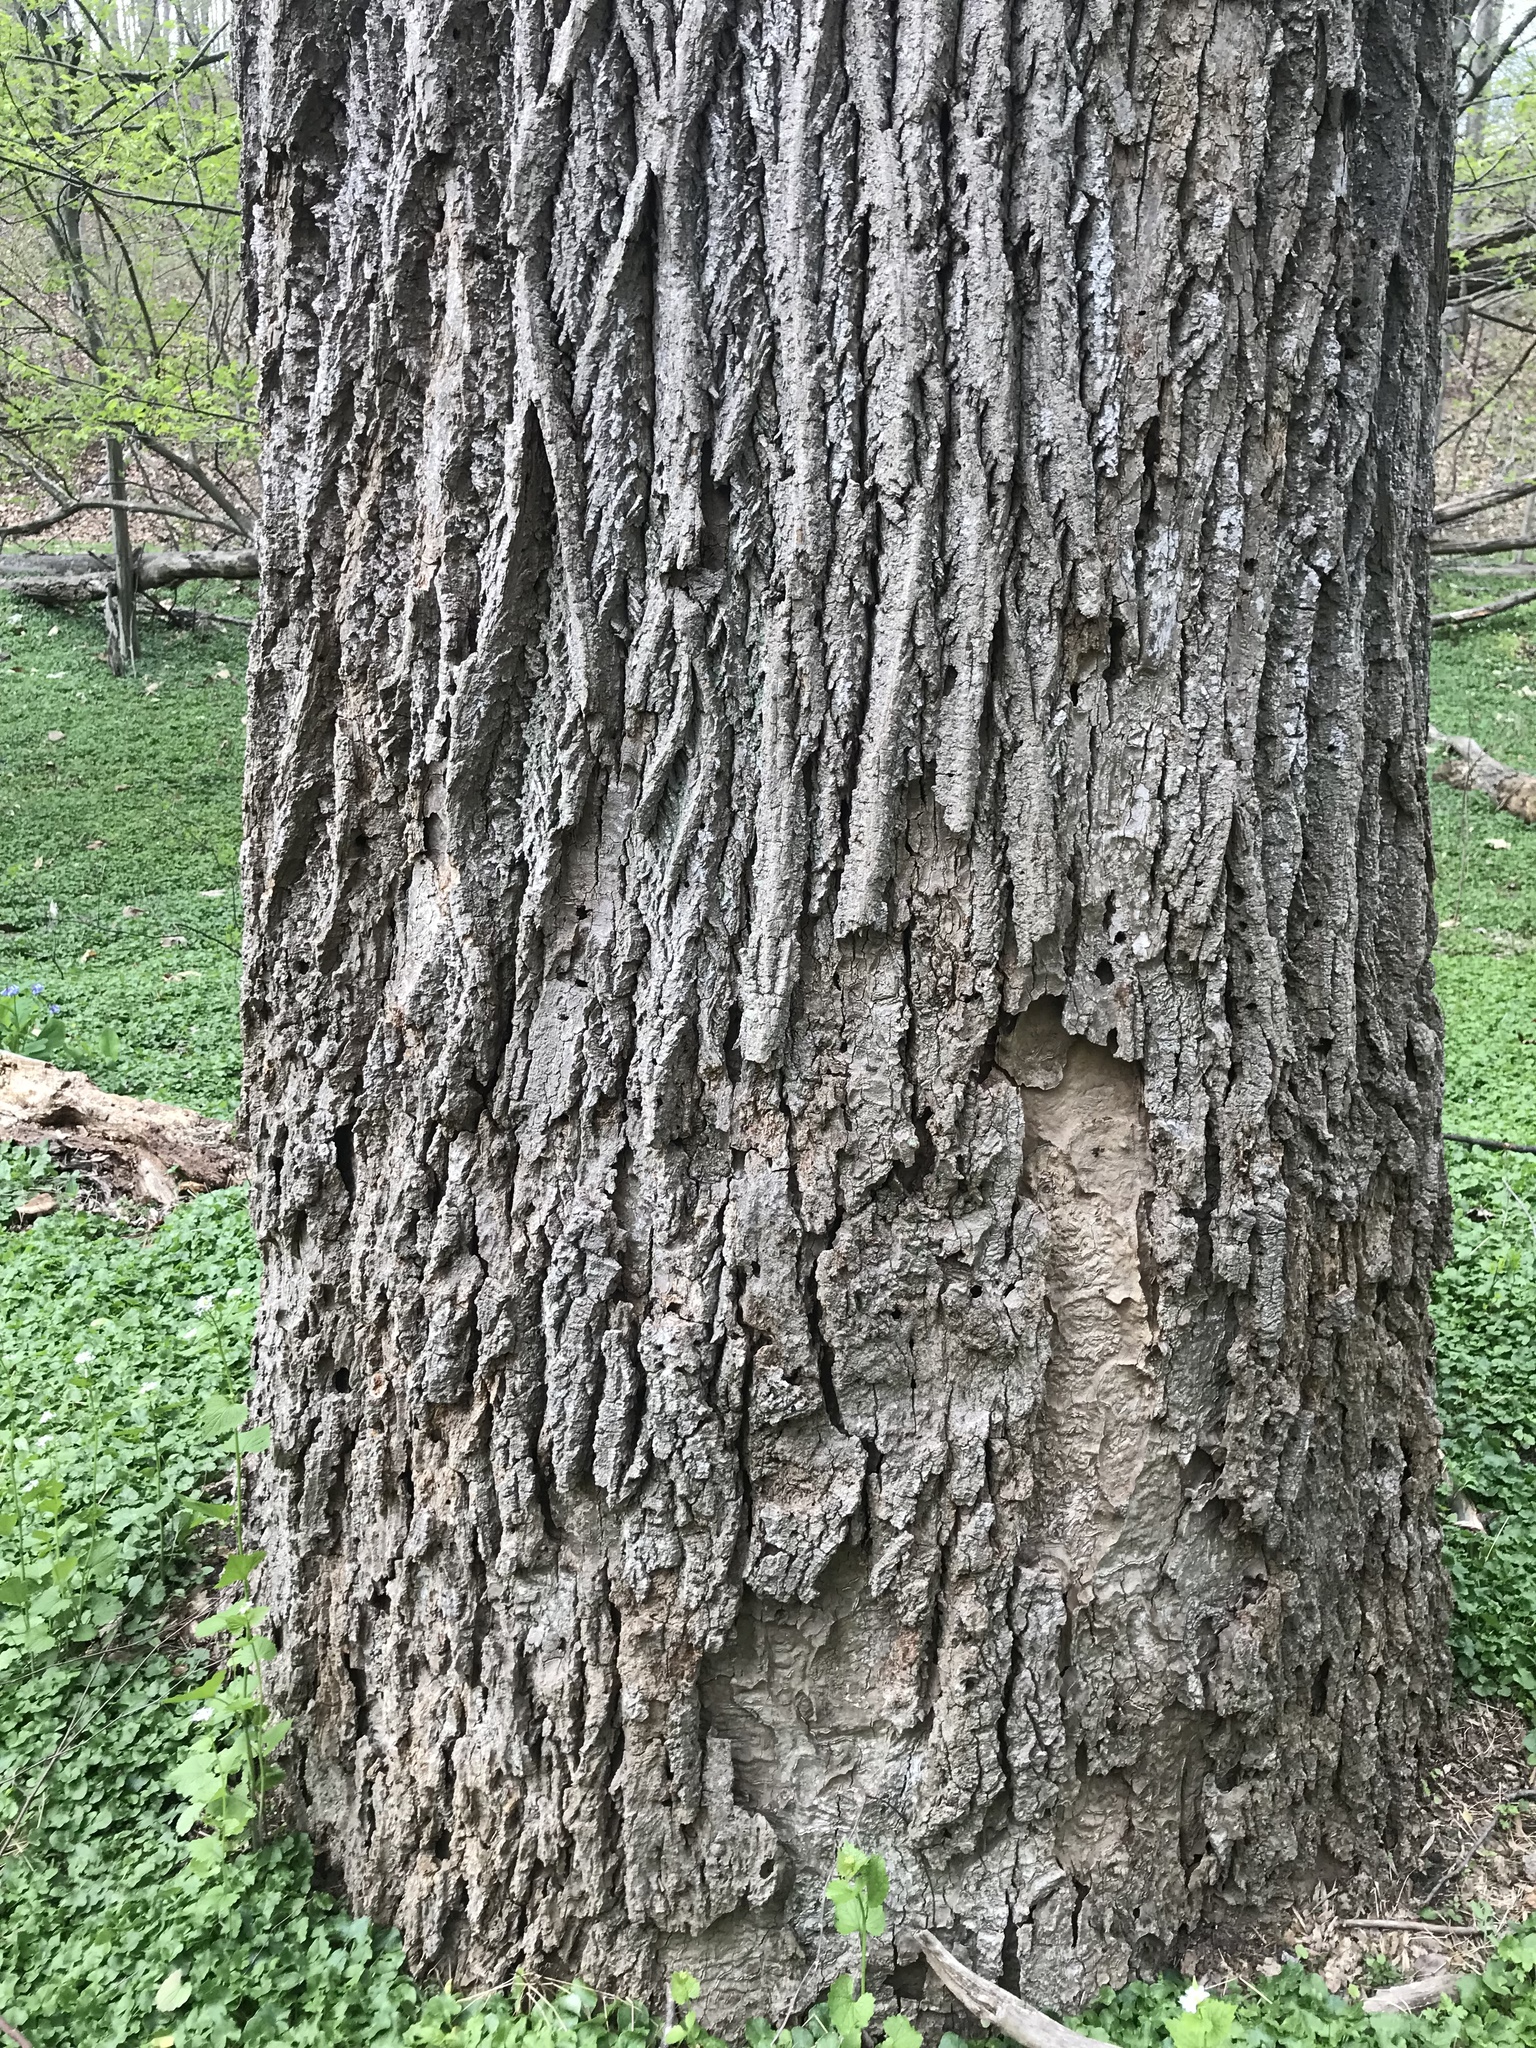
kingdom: Plantae
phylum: Tracheophyta
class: Magnoliopsida
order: Magnoliales
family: Magnoliaceae
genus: Liriodendron
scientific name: Liriodendron tulipifera
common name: Tulip tree
